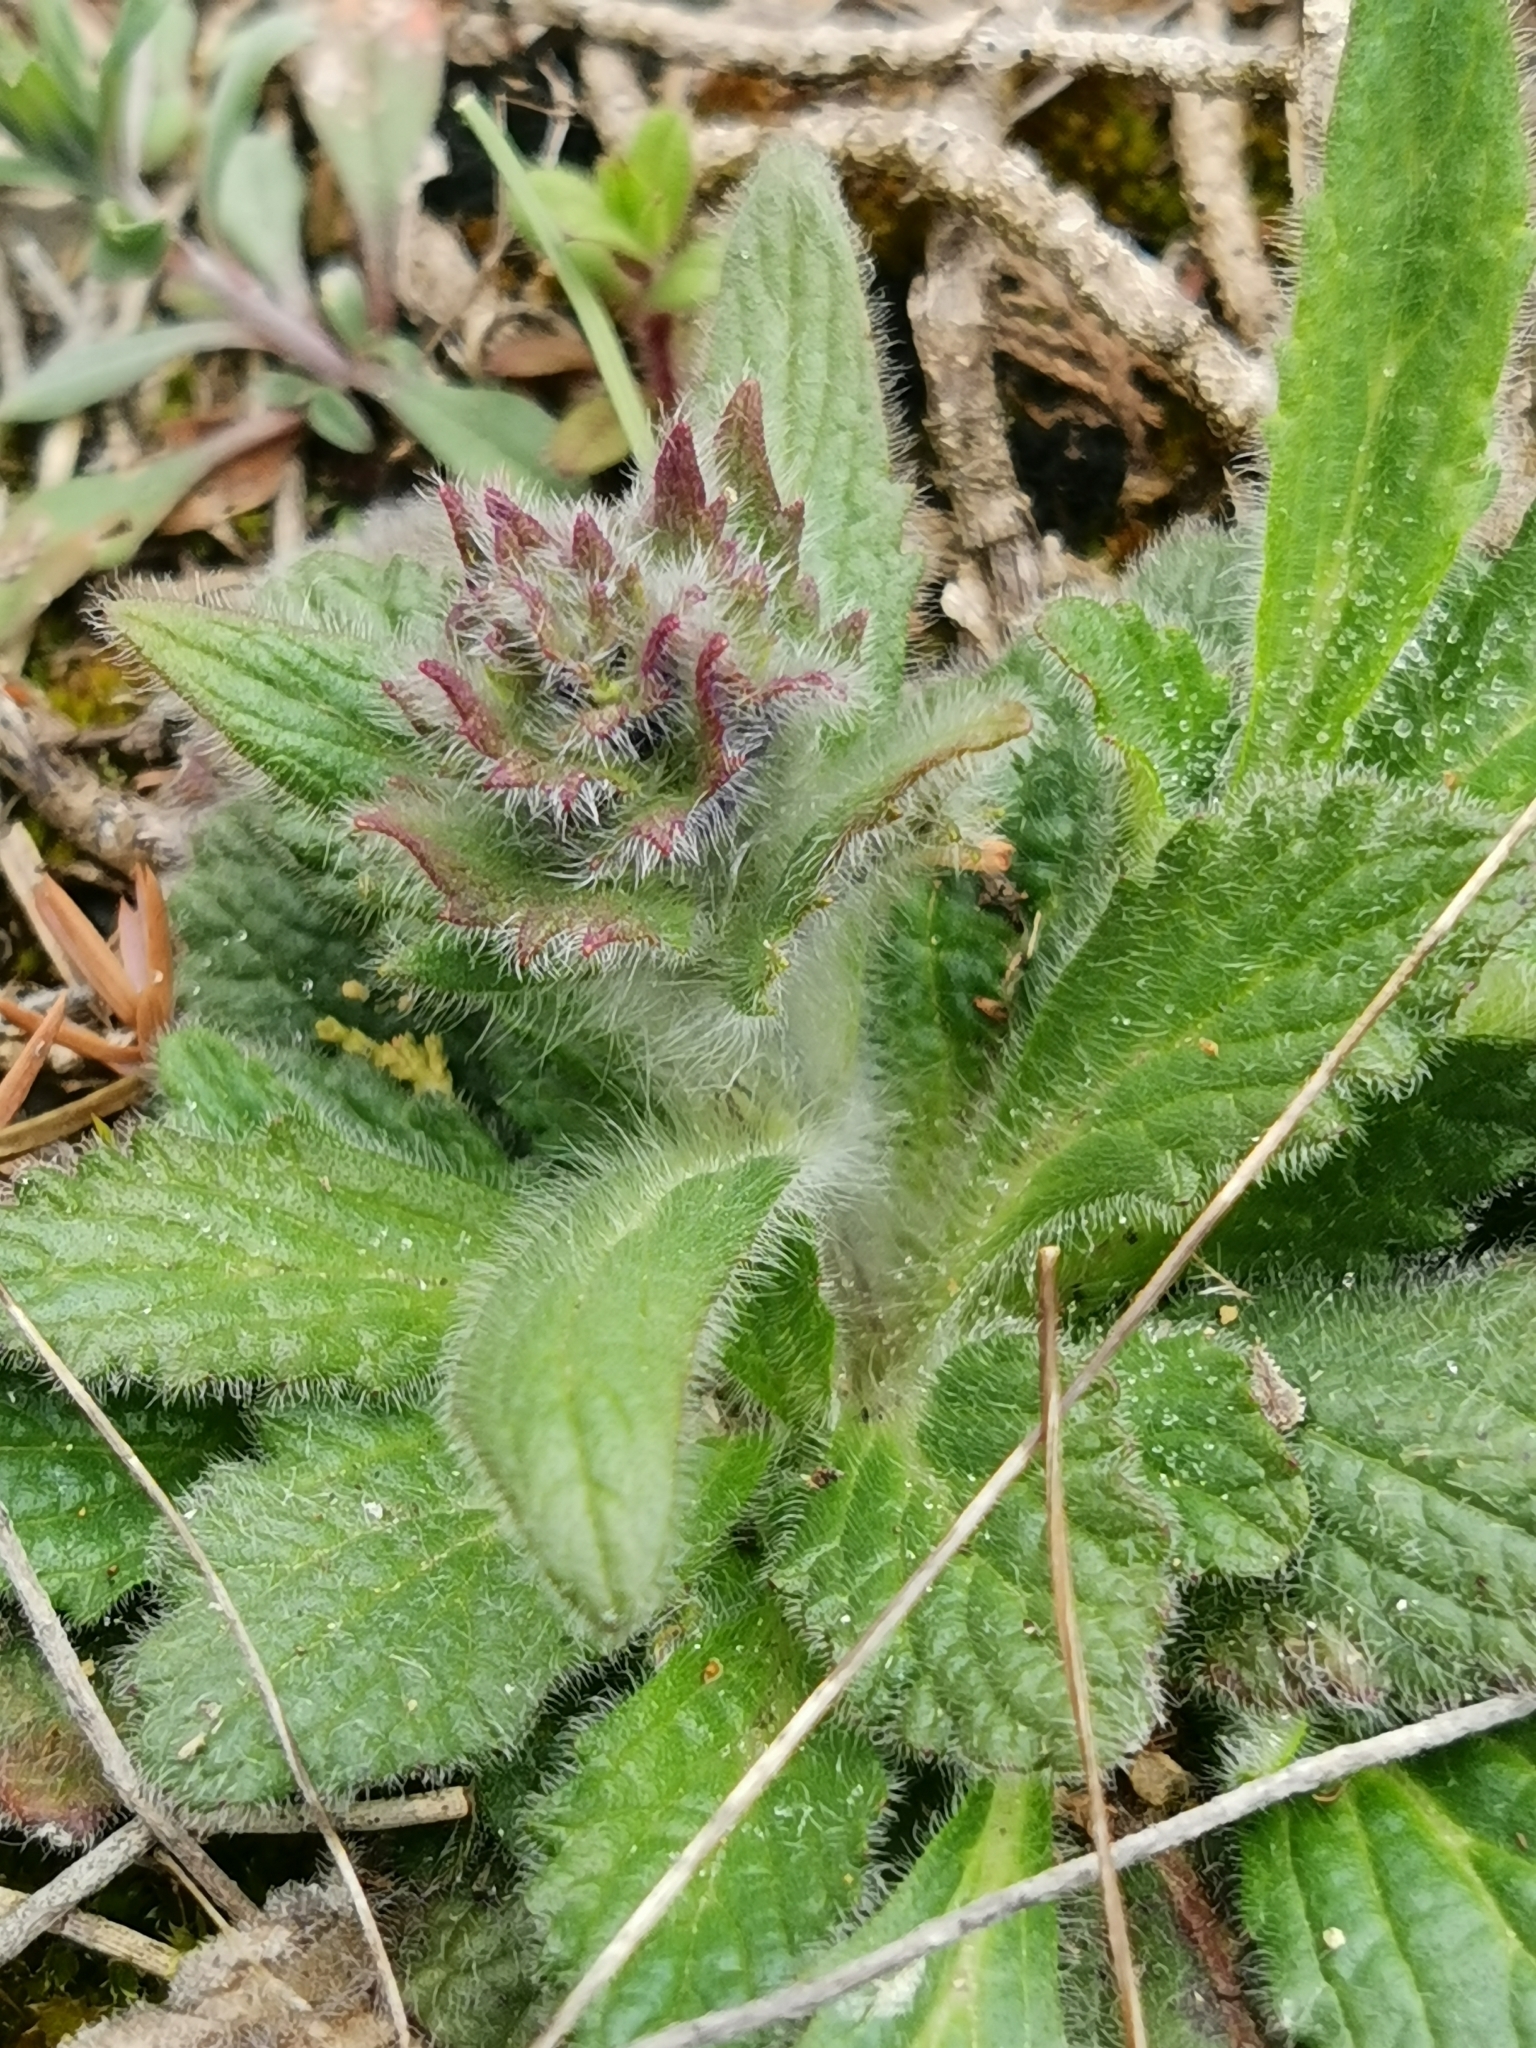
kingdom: Plantae
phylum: Tracheophyta
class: Magnoliopsida
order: Lamiales
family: Lamiaceae
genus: Ajuga
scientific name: Ajuga orientalis
